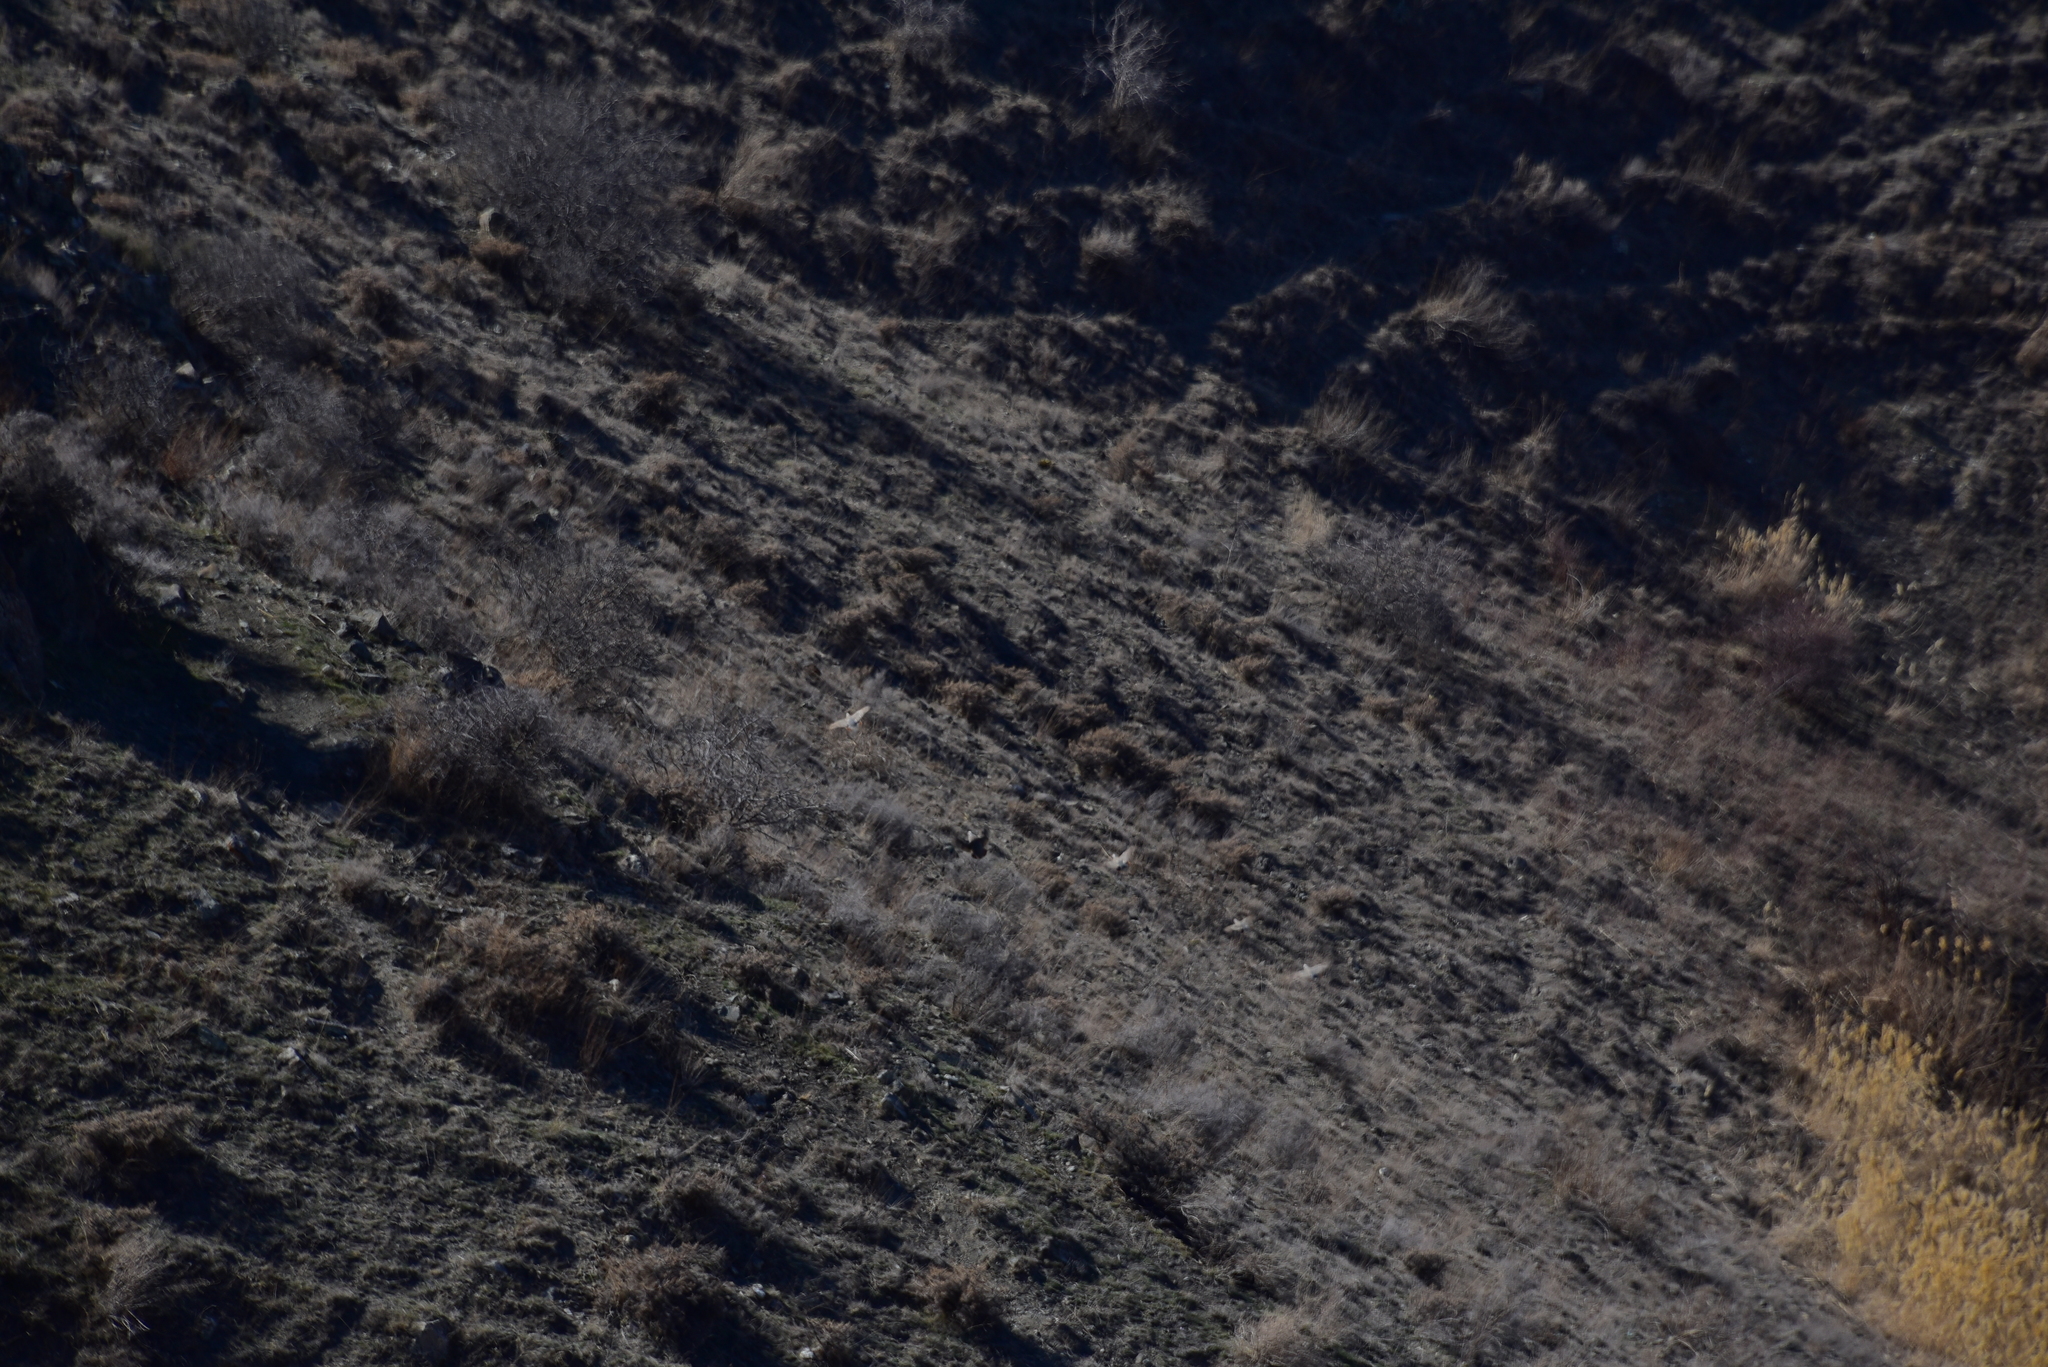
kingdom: Animalia
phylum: Chordata
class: Aves
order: Galliformes
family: Phasianidae
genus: Alectoris
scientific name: Alectoris chukar
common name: Chukar
